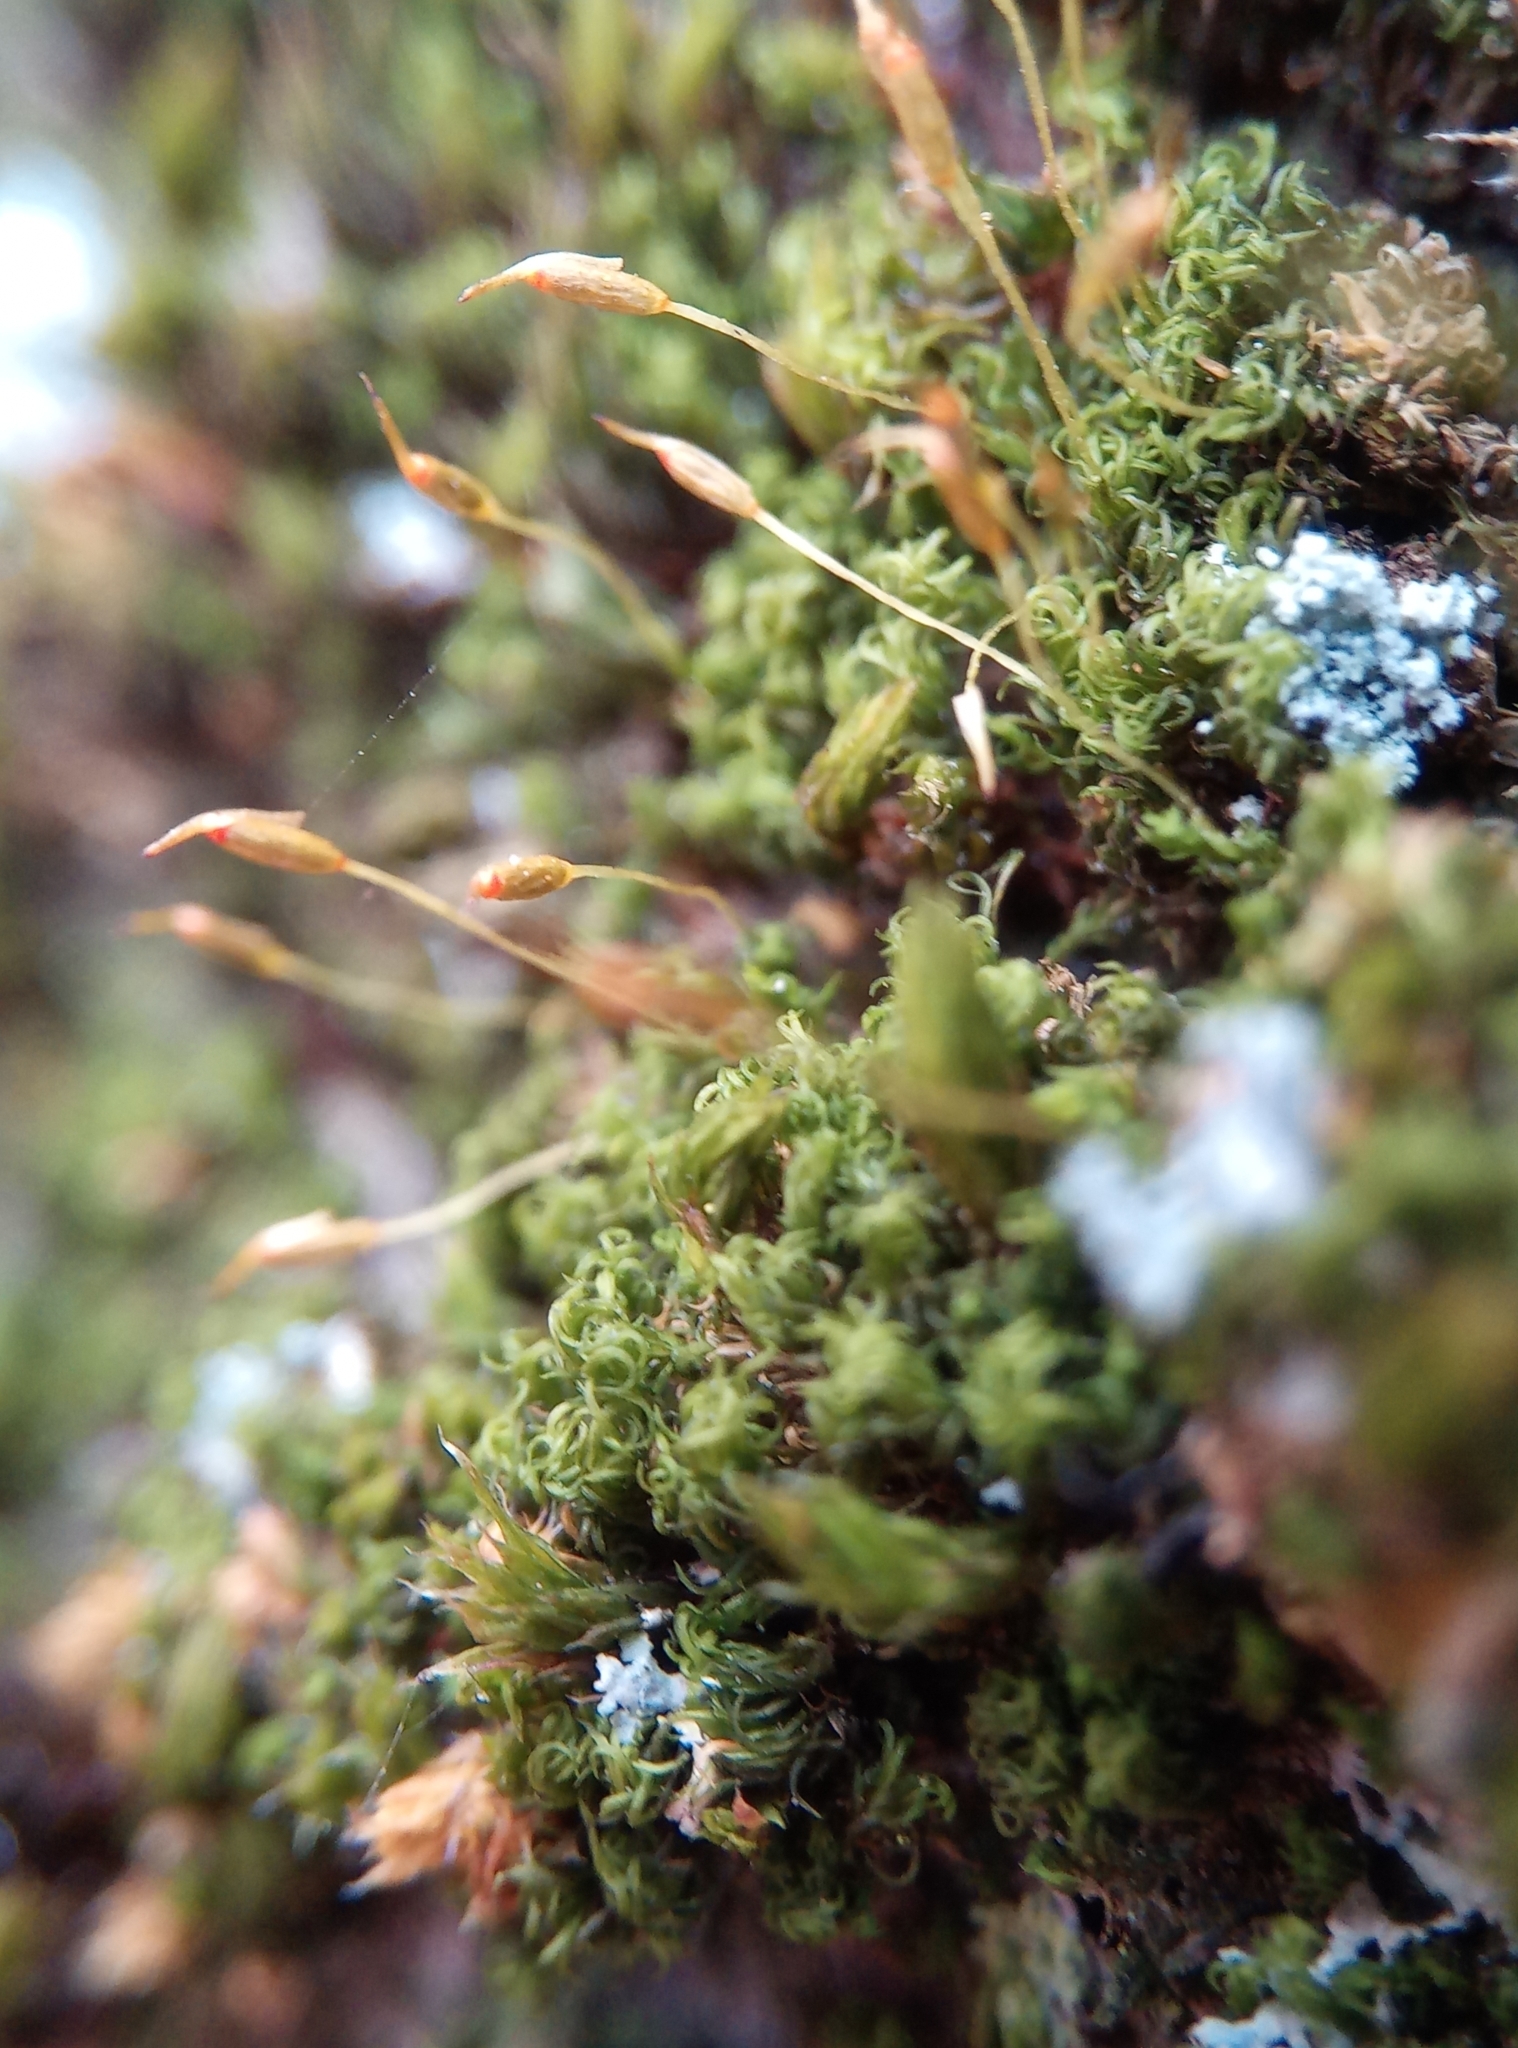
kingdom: Plantae
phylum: Bryophyta
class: Bryopsida
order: Dicranales
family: Rhabdoweisiaceae
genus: Dicranoweisia
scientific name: Dicranoweisia cirrata
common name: Common pincushion
